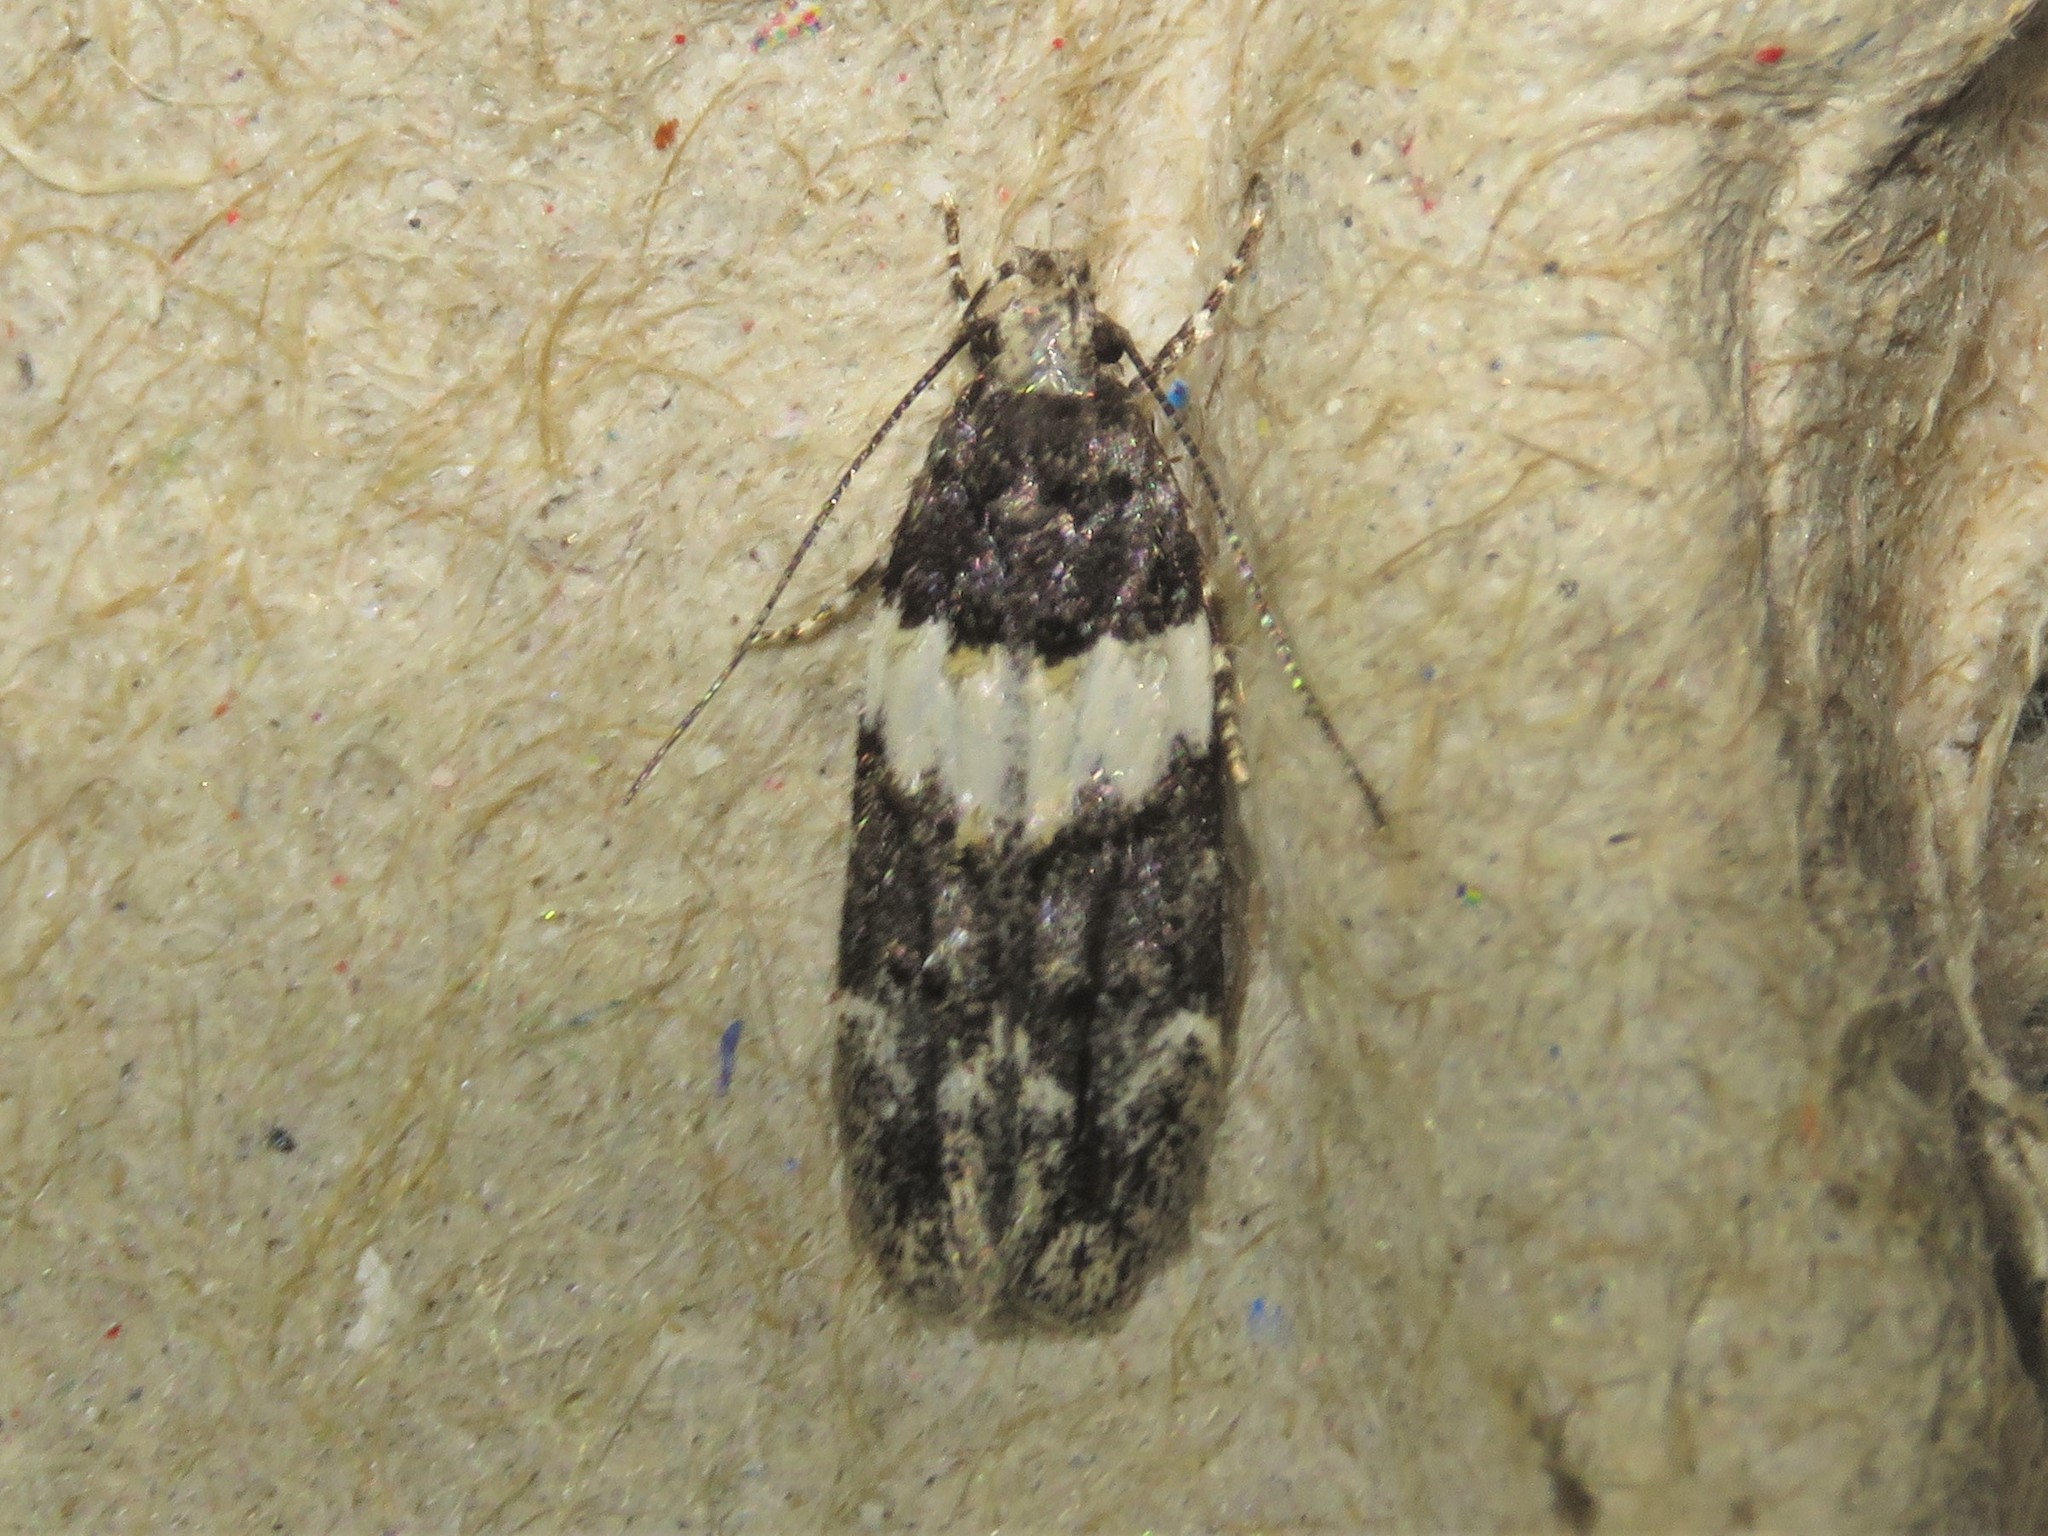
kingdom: Animalia
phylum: Arthropoda
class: Insecta
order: Lepidoptera
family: Gelechiidae
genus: Pubitelphusa
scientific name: Pubitelphusa latifasciella
